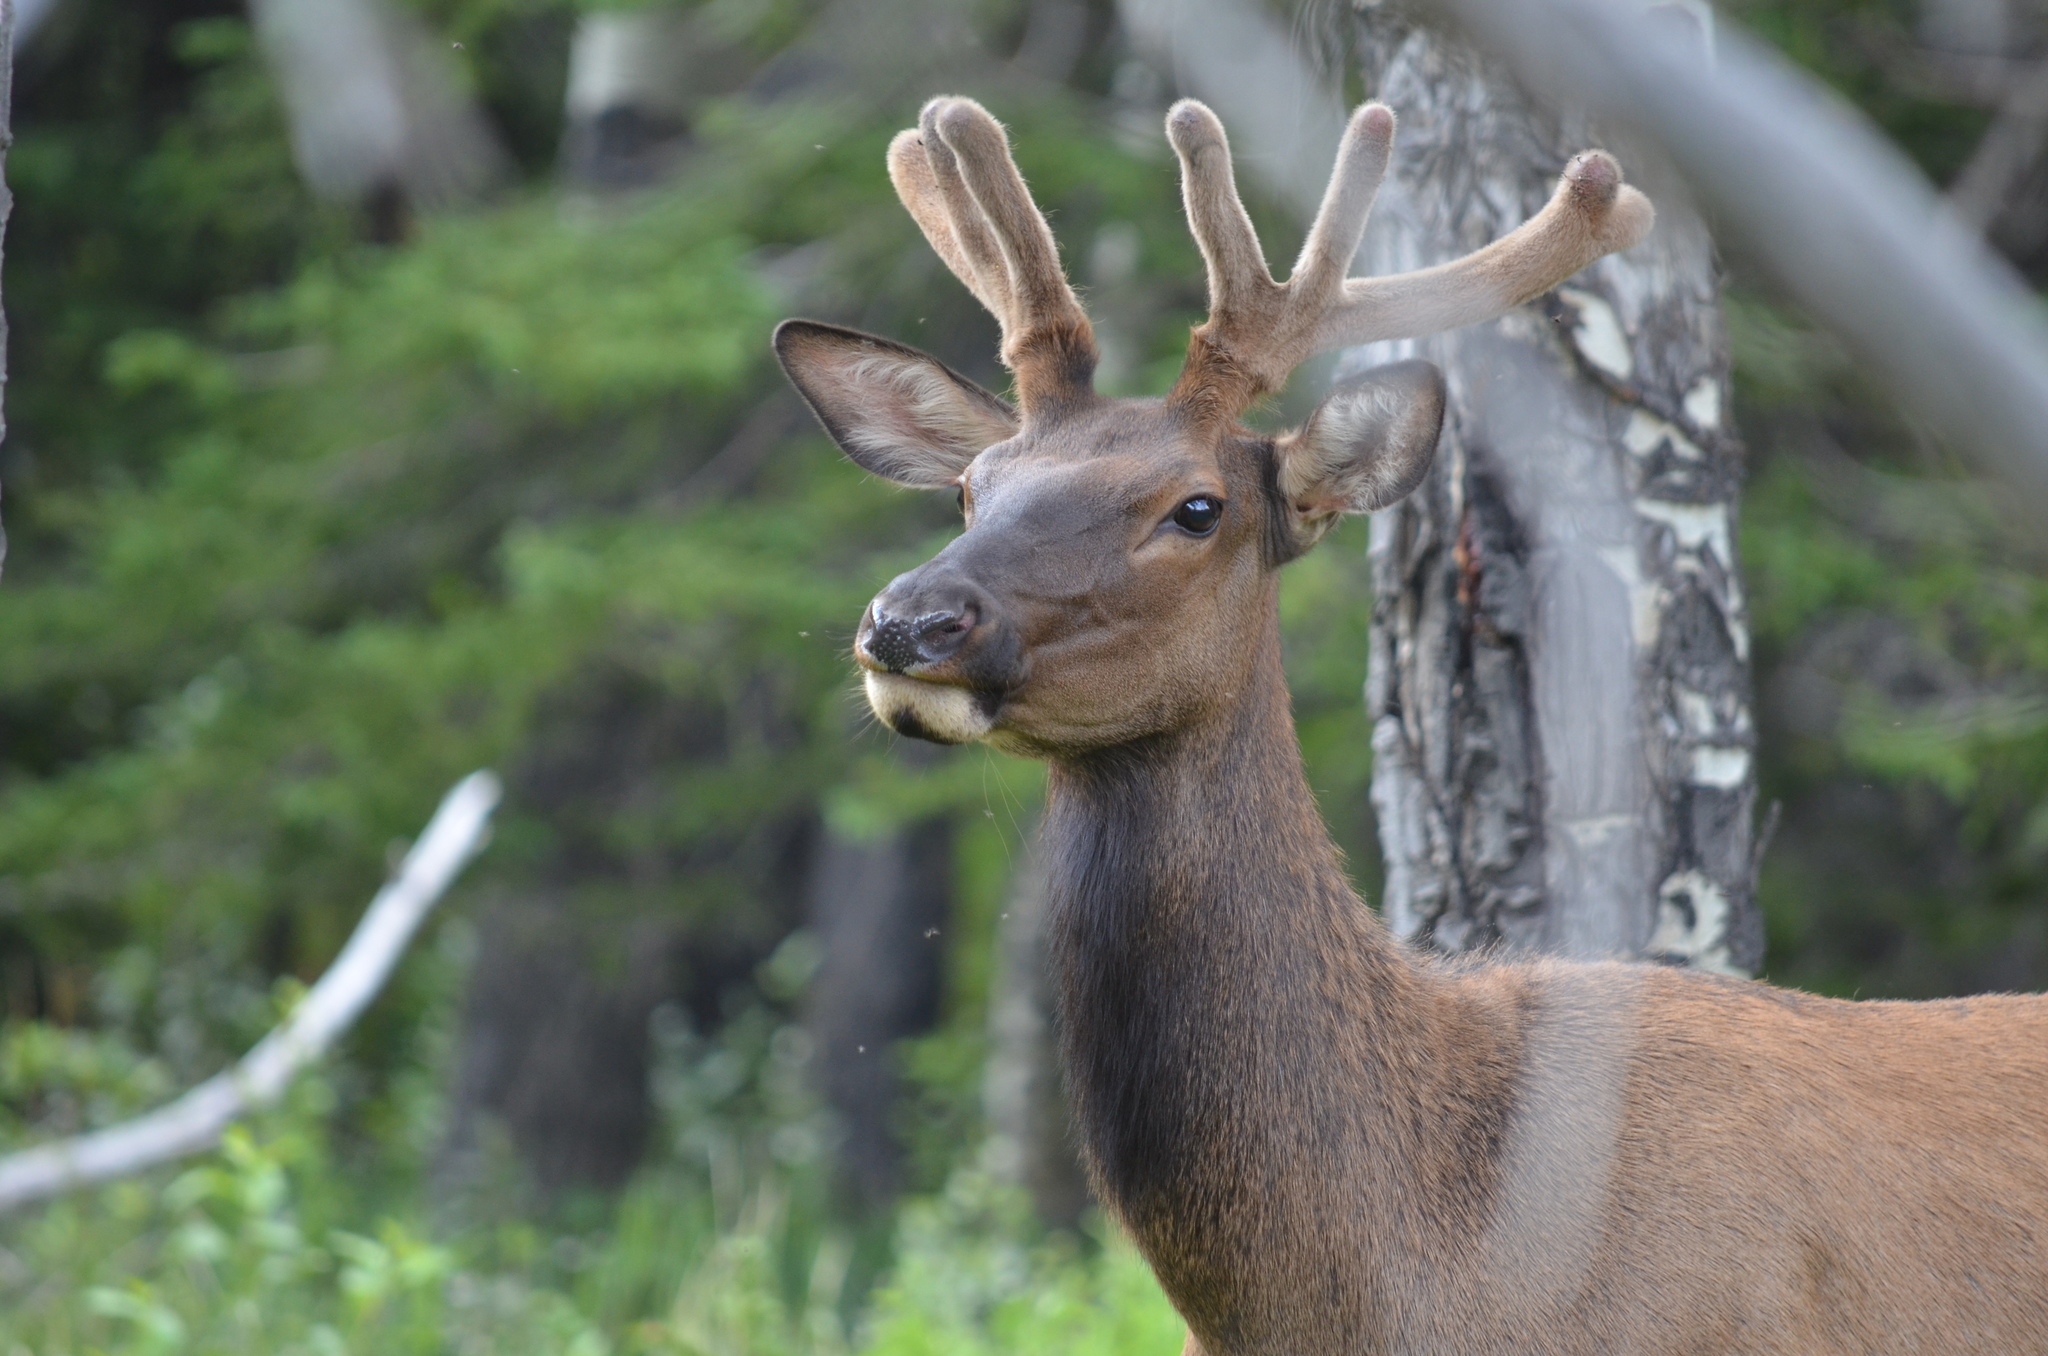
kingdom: Animalia
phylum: Chordata
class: Mammalia
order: Artiodactyla
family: Cervidae
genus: Cervus
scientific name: Cervus elaphus
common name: Red deer
